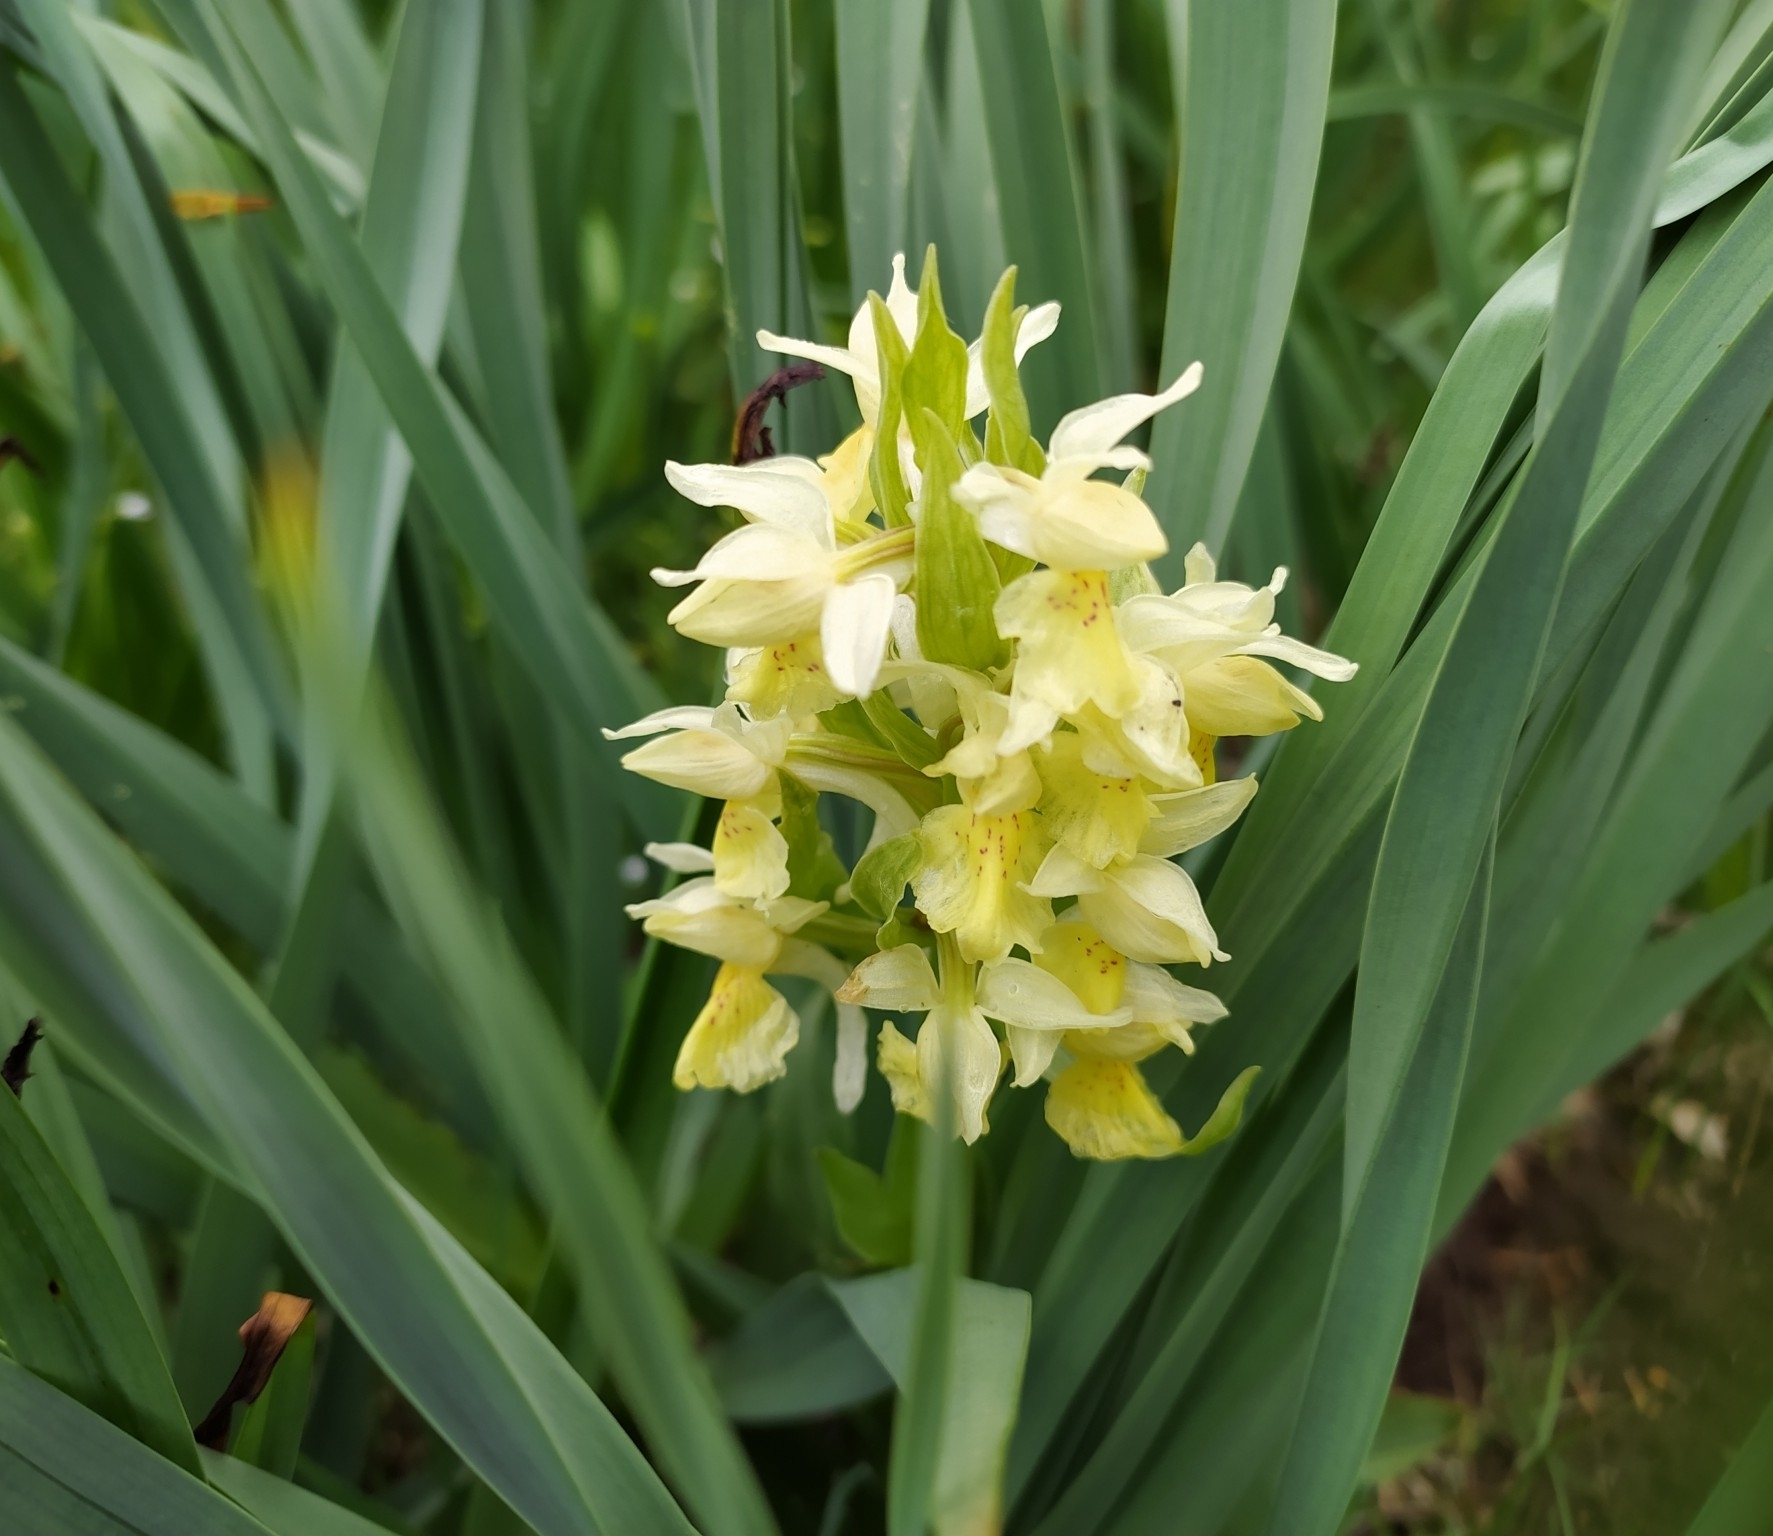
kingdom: Plantae
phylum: Tracheophyta
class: Liliopsida
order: Asparagales
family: Orchidaceae
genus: Dactylorhiza
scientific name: Dactylorhiza sambucina
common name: Elder-flowered orchid
